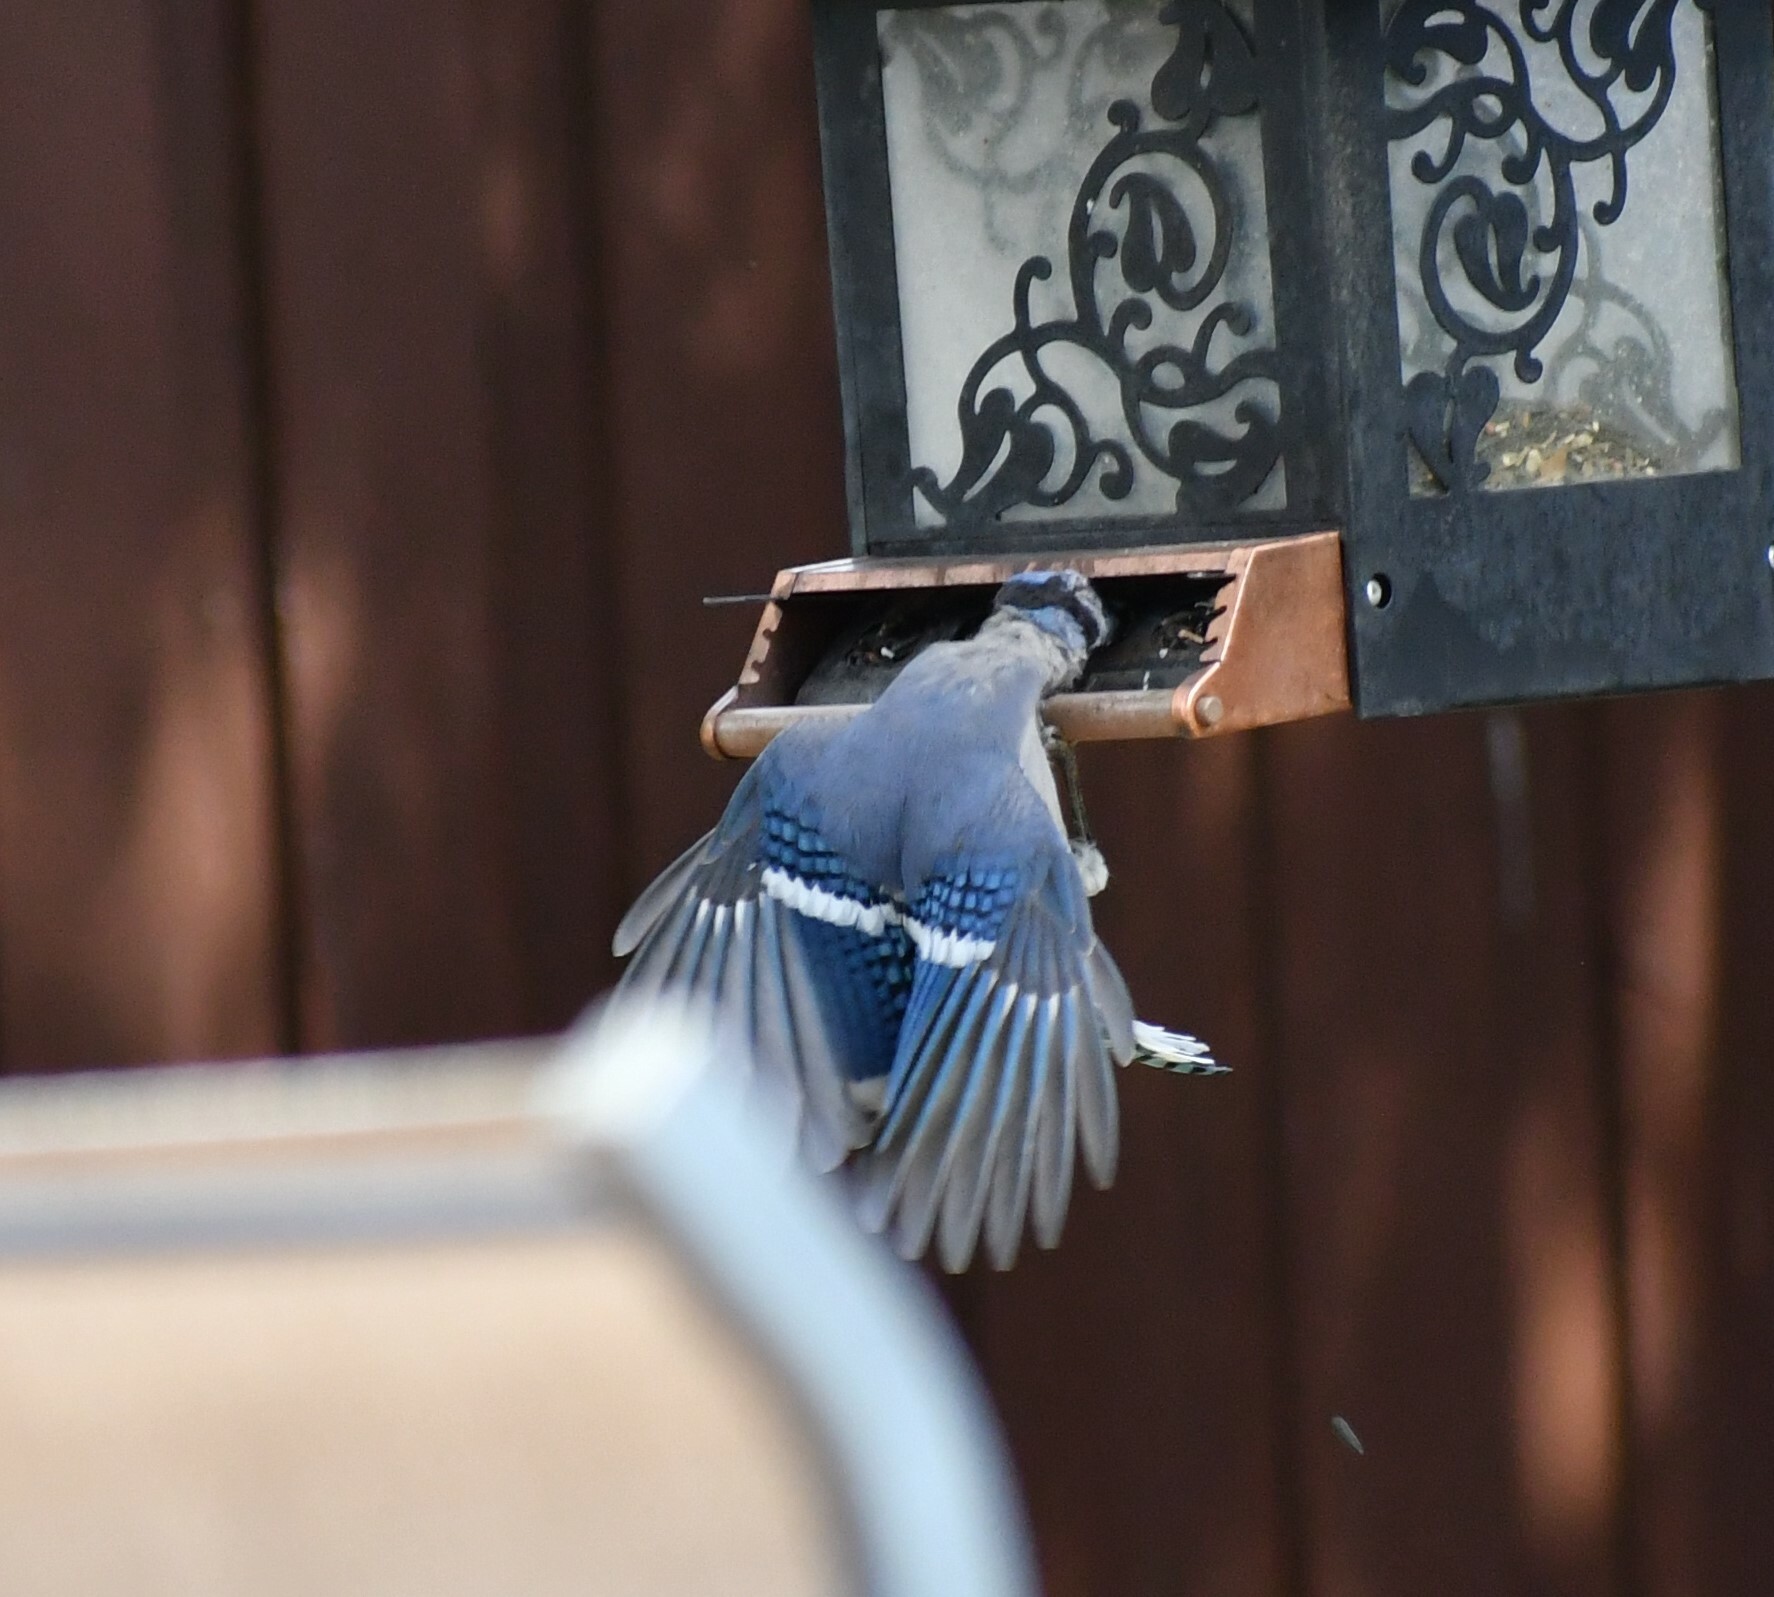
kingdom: Animalia
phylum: Chordata
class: Aves
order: Passeriformes
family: Corvidae
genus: Cyanocitta
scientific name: Cyanocitta cristata
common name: Blue jay
